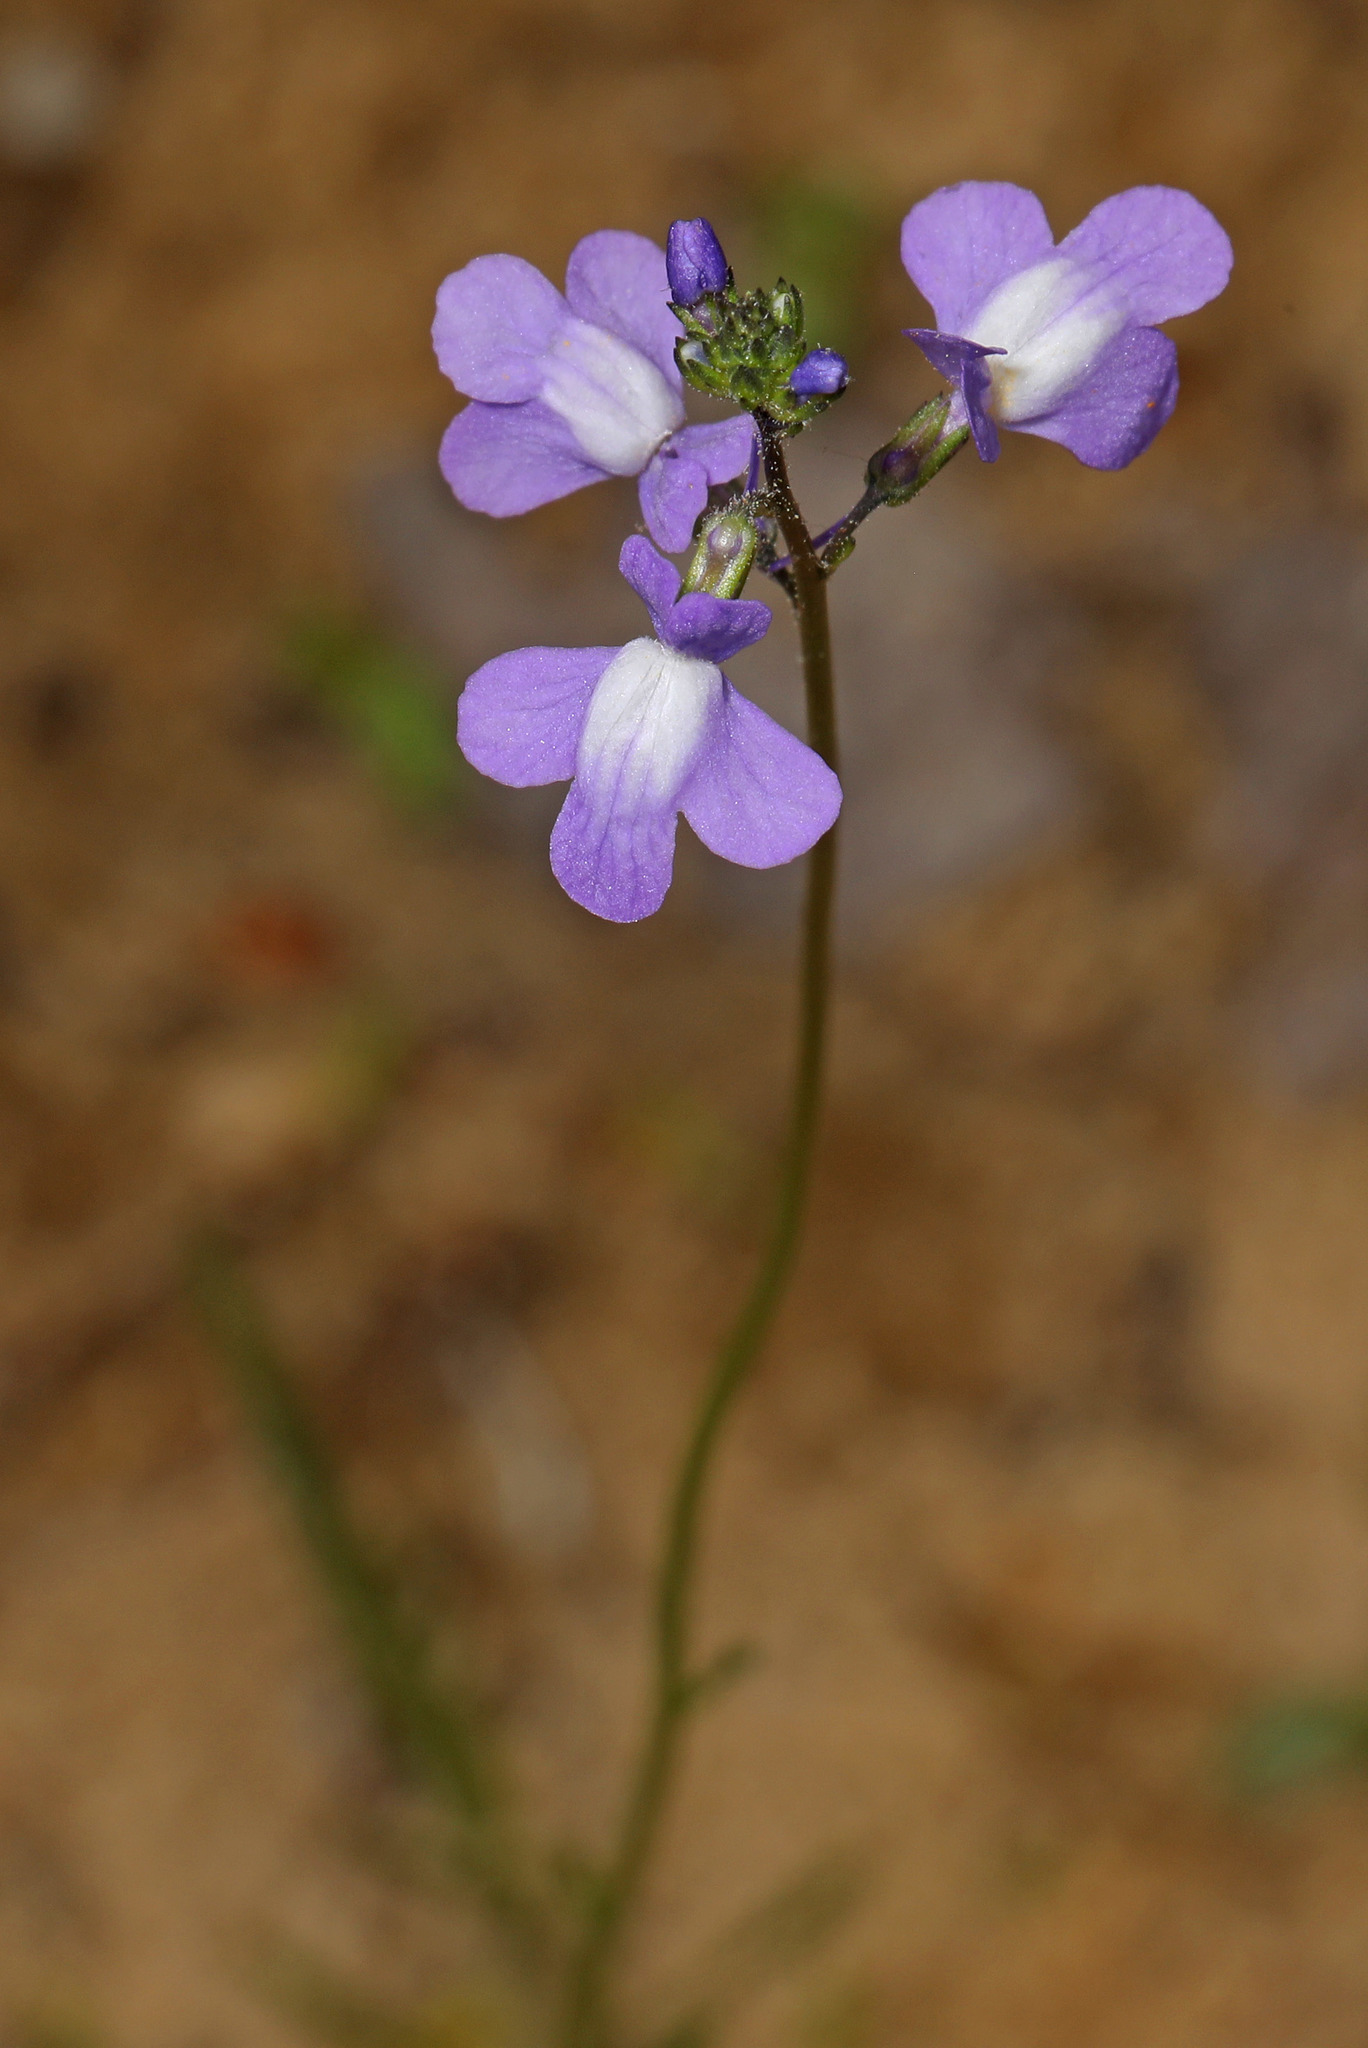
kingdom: Plantae
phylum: Tracheophyta
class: Magnoliopsida
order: Lamiales
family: Plantaginaceae
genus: Nuttallanthus
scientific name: Nuttallanthus canadensis
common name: Blue toadflax
